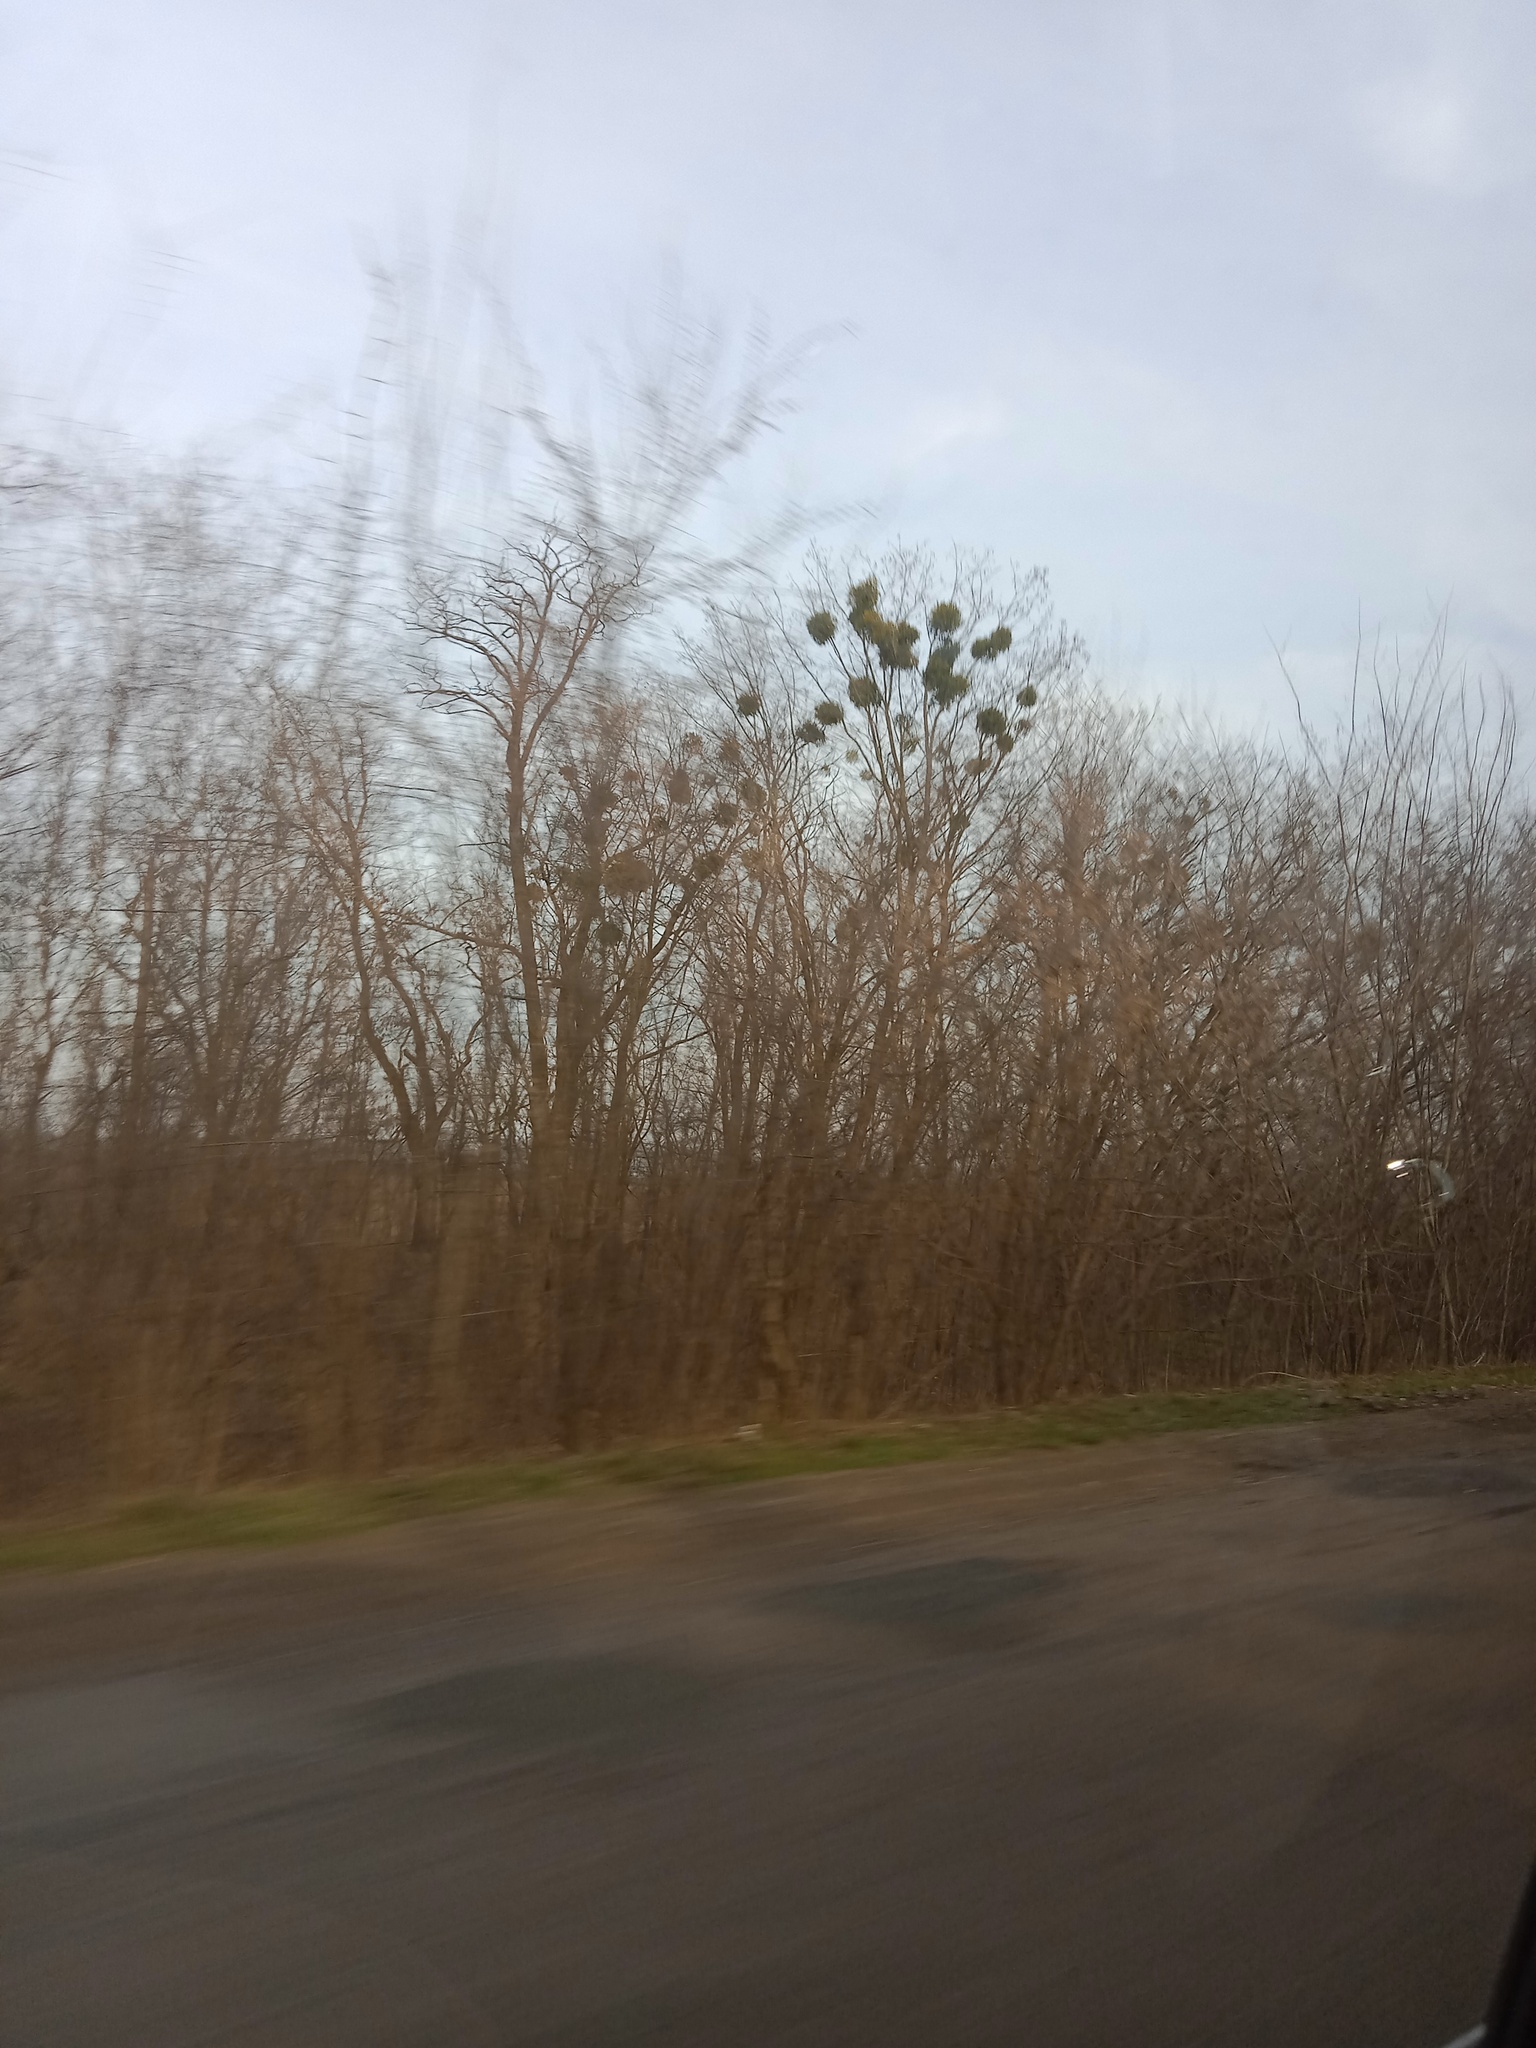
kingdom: Plantae
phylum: Tracheophyta
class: Magnoliopsida
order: Santalales
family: Viscaceae
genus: Viscum
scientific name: Viscum album
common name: Mistletoe
